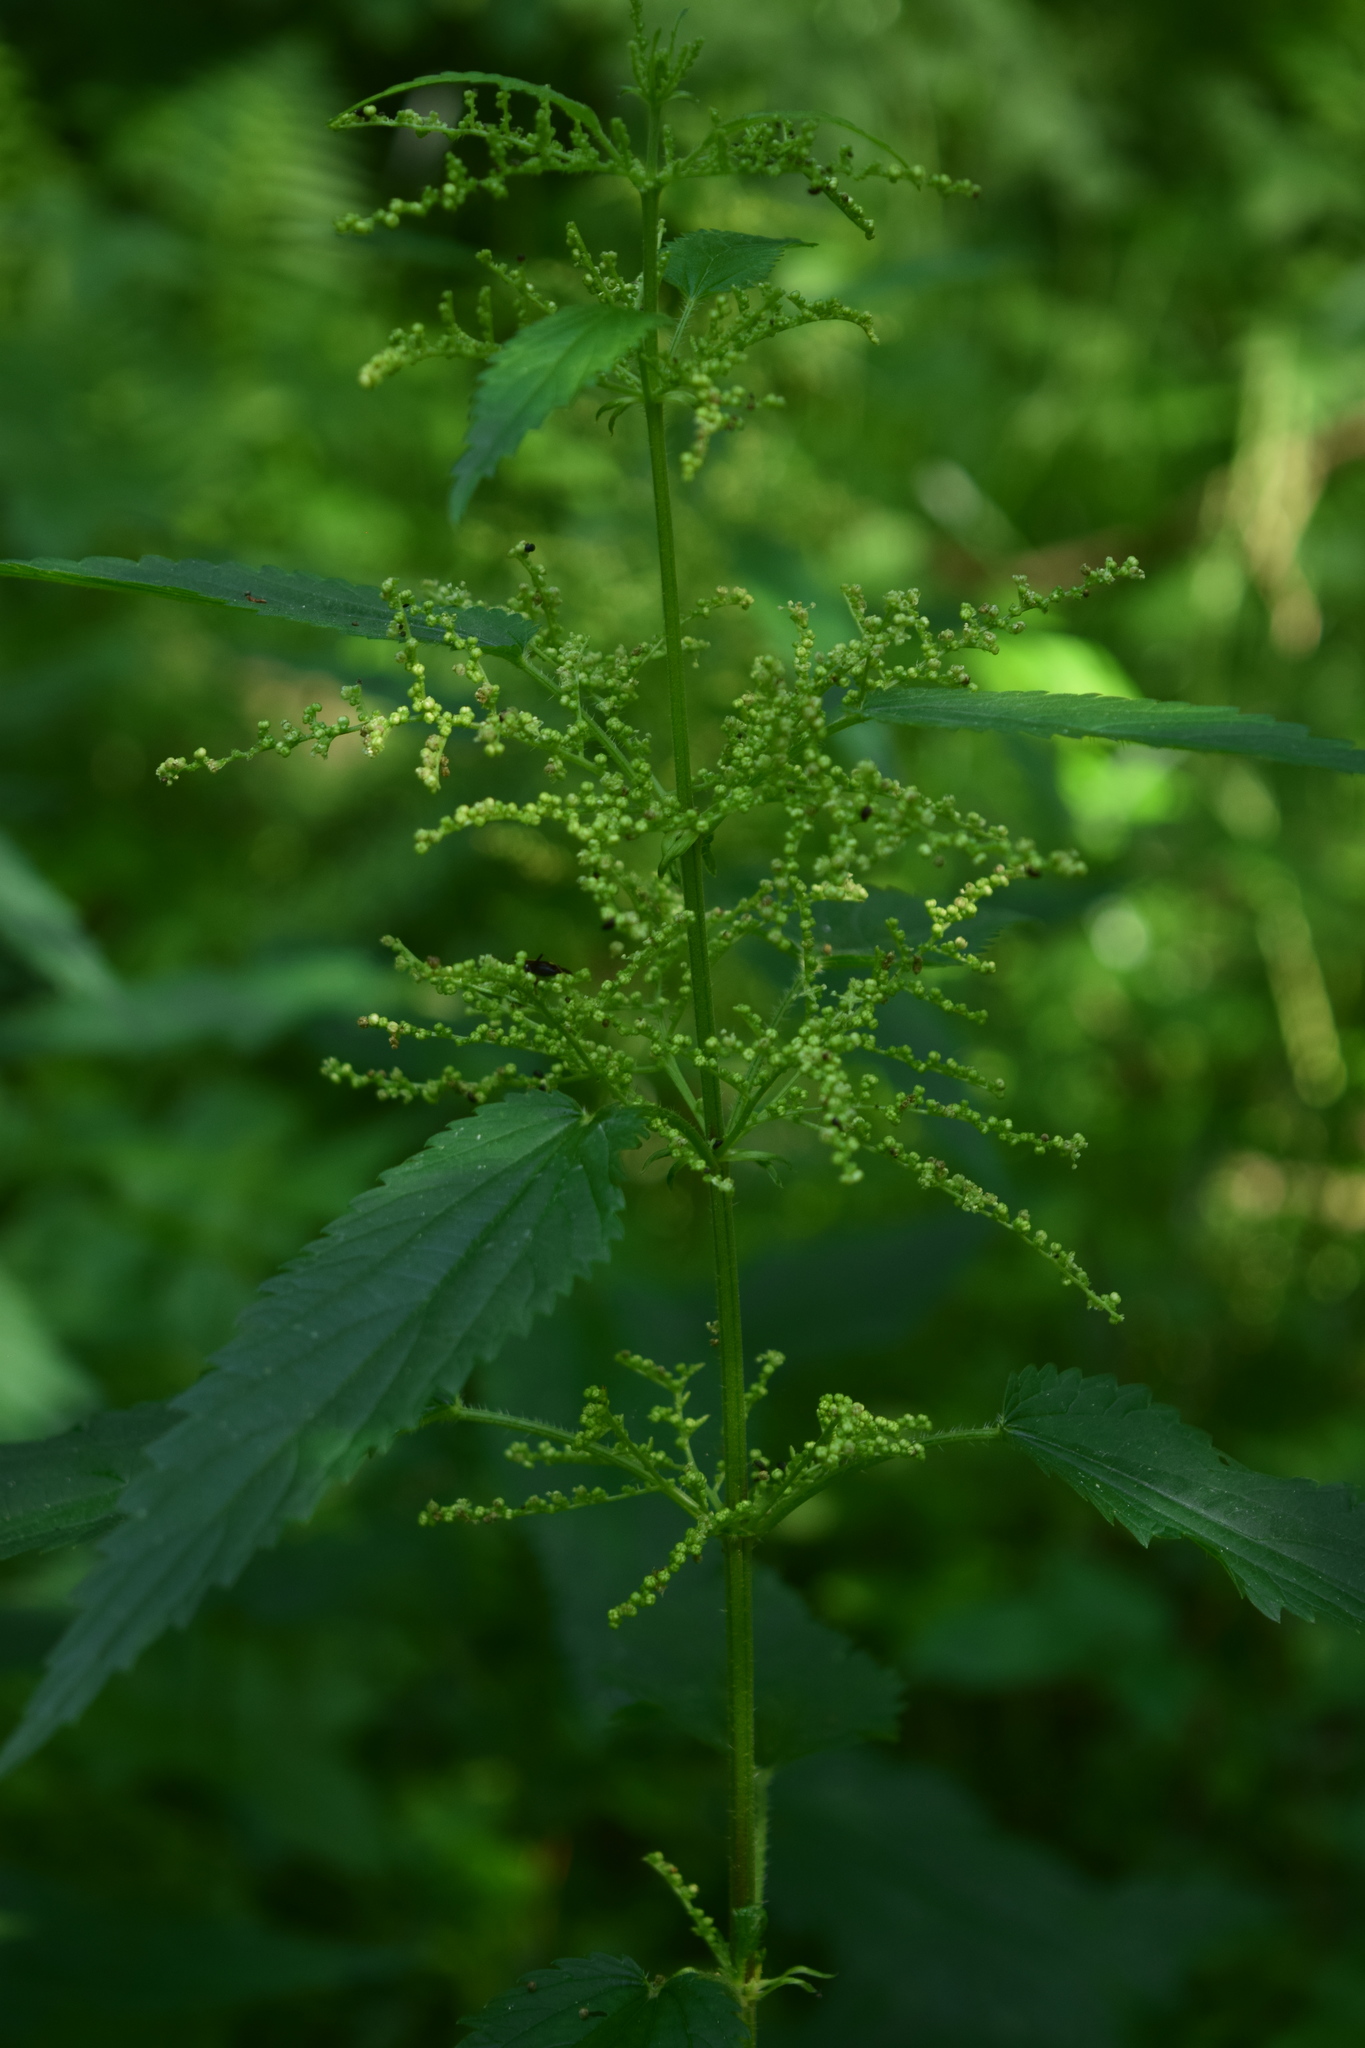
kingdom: Plantae
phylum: Tracheophyta
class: Magnoliopsida
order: Rosales
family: Urticaceae
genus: Urtica
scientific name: Urtica dioica
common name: Common nettle
